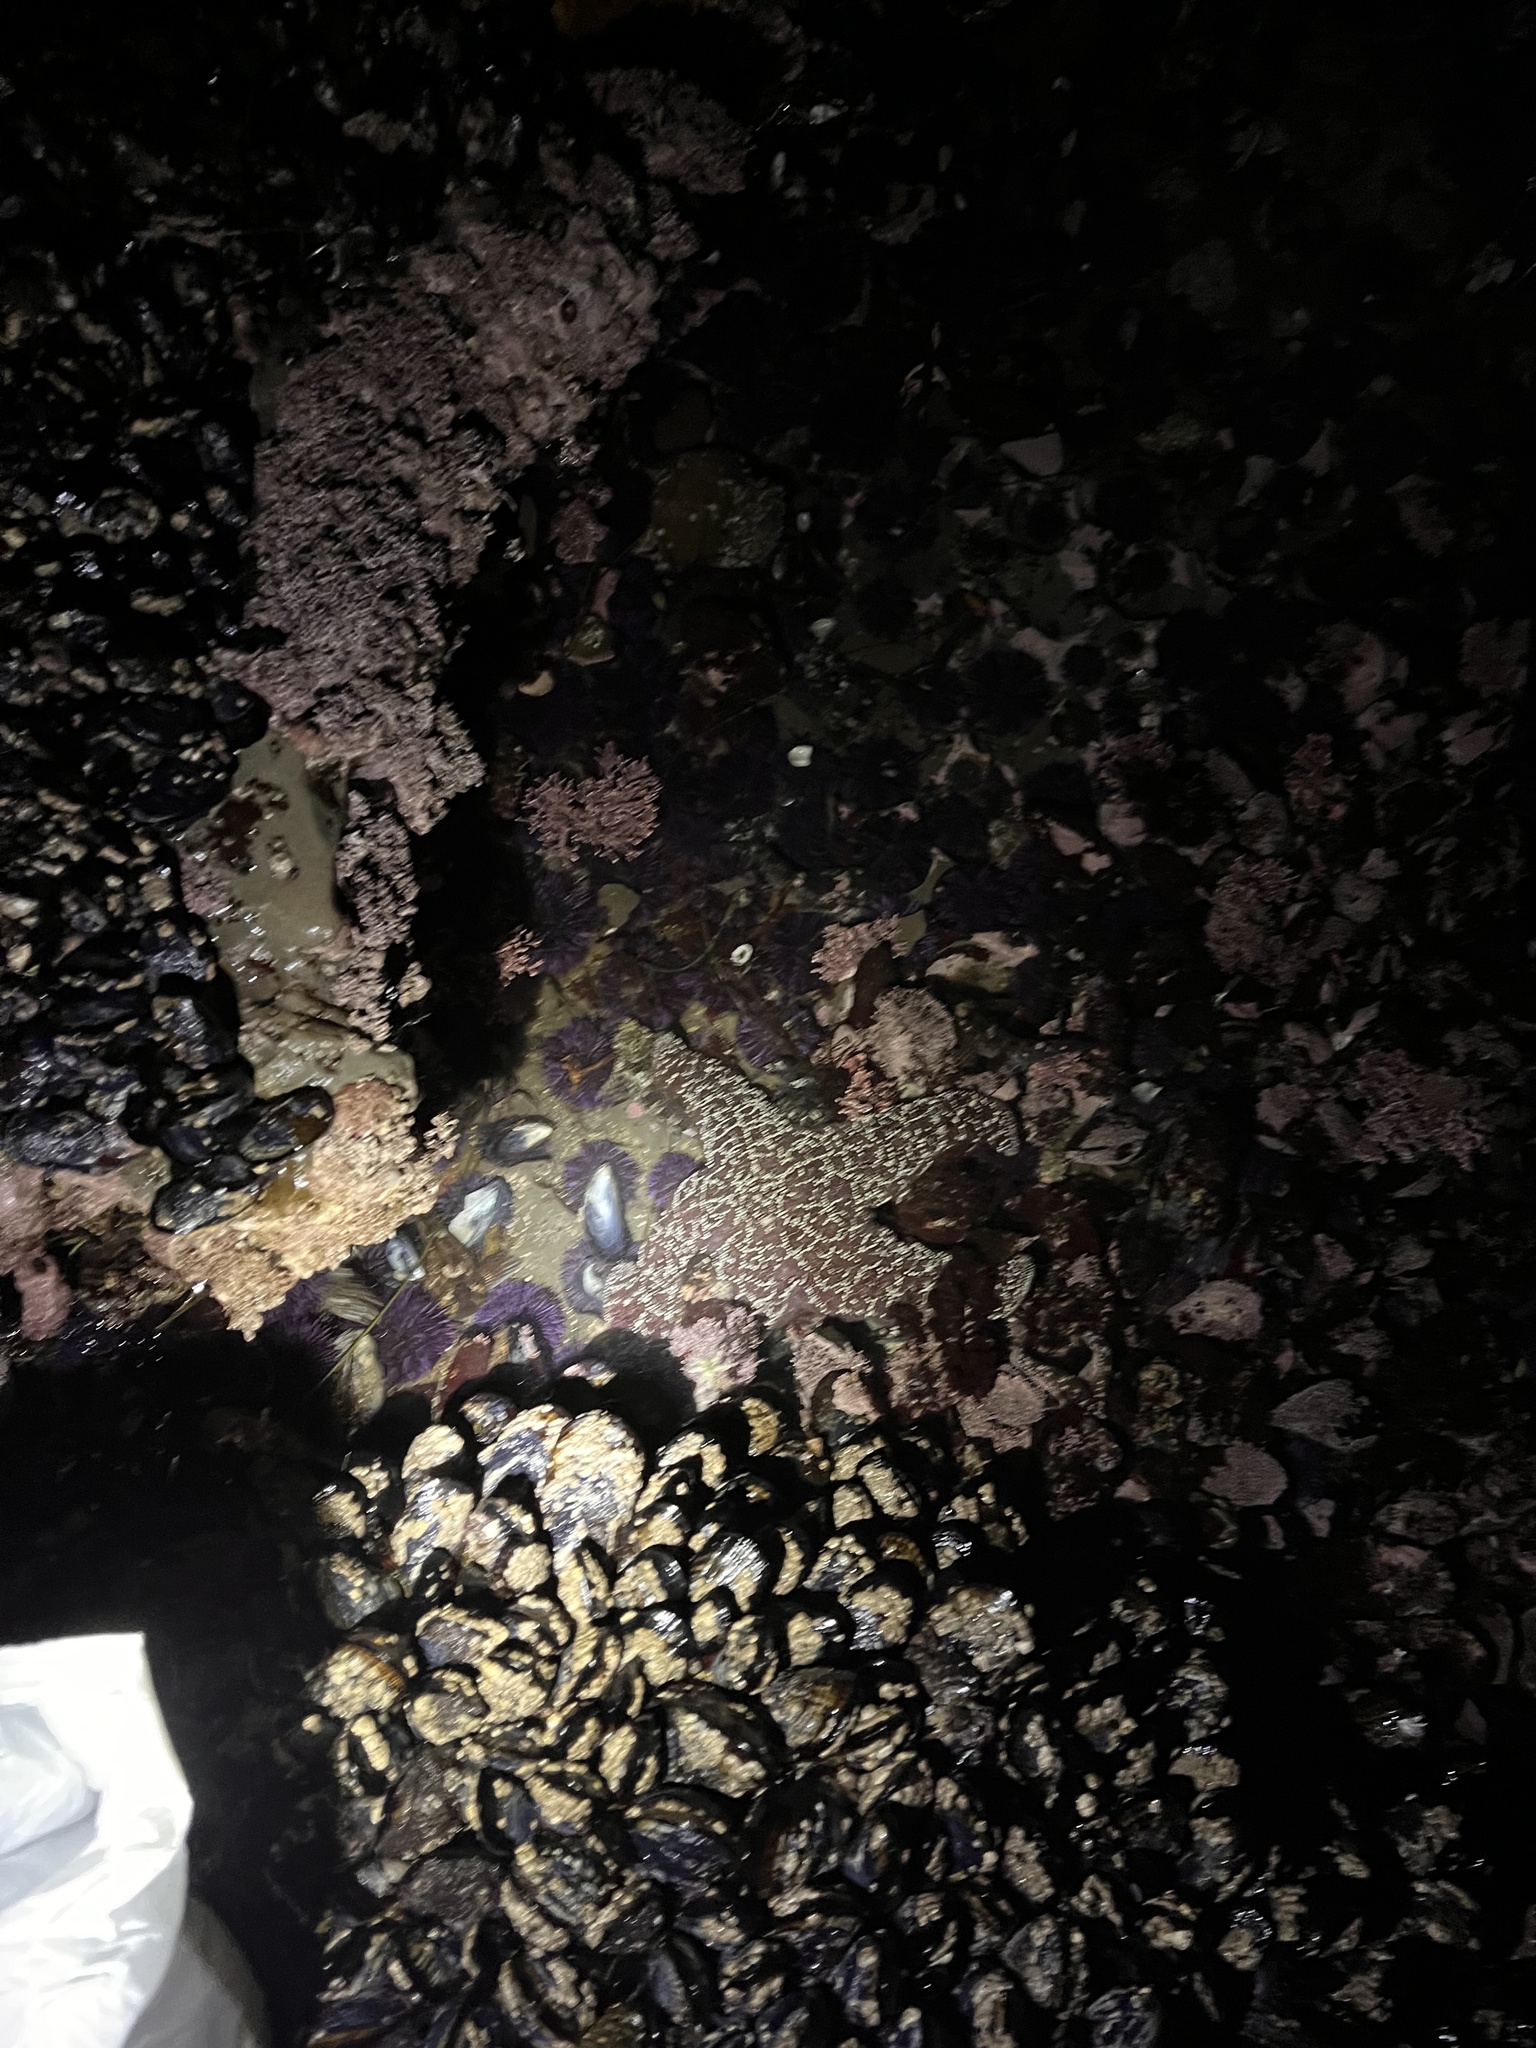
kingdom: Animalia
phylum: Echinodermata
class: Asteroidea
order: Forcipulatida
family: Asteriidae
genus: Pisaster
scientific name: Pisaster ochraceus
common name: Ochre stars
